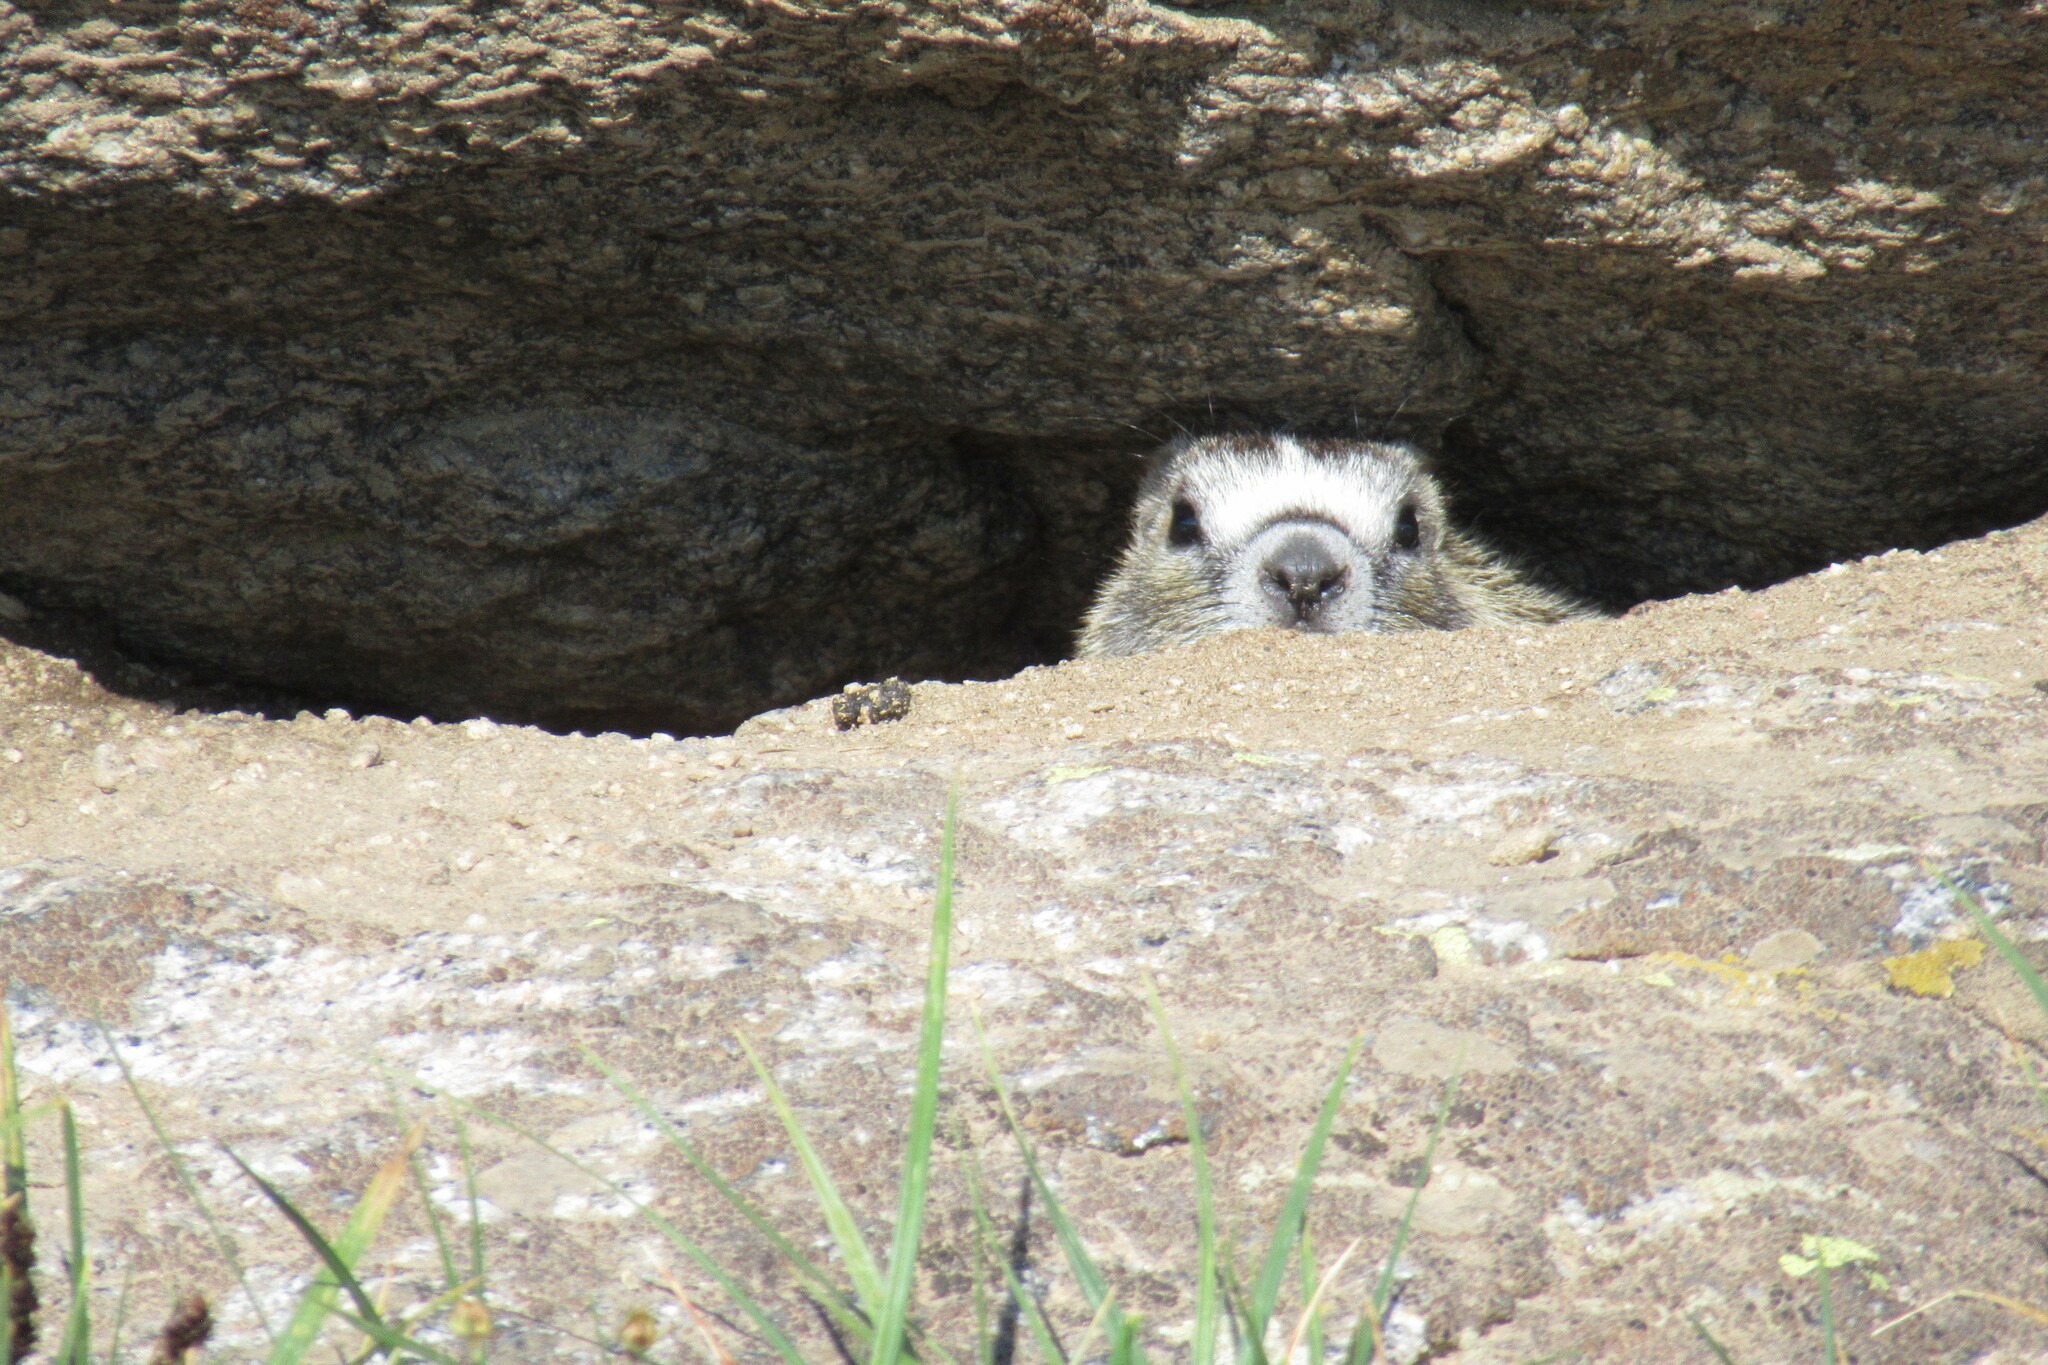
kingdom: Animalia
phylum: Chordata
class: Mammalia
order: Rodentia
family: Sciuridae
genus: Marmota
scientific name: Marmota flaviventris
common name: Yellow-bellied marmot
